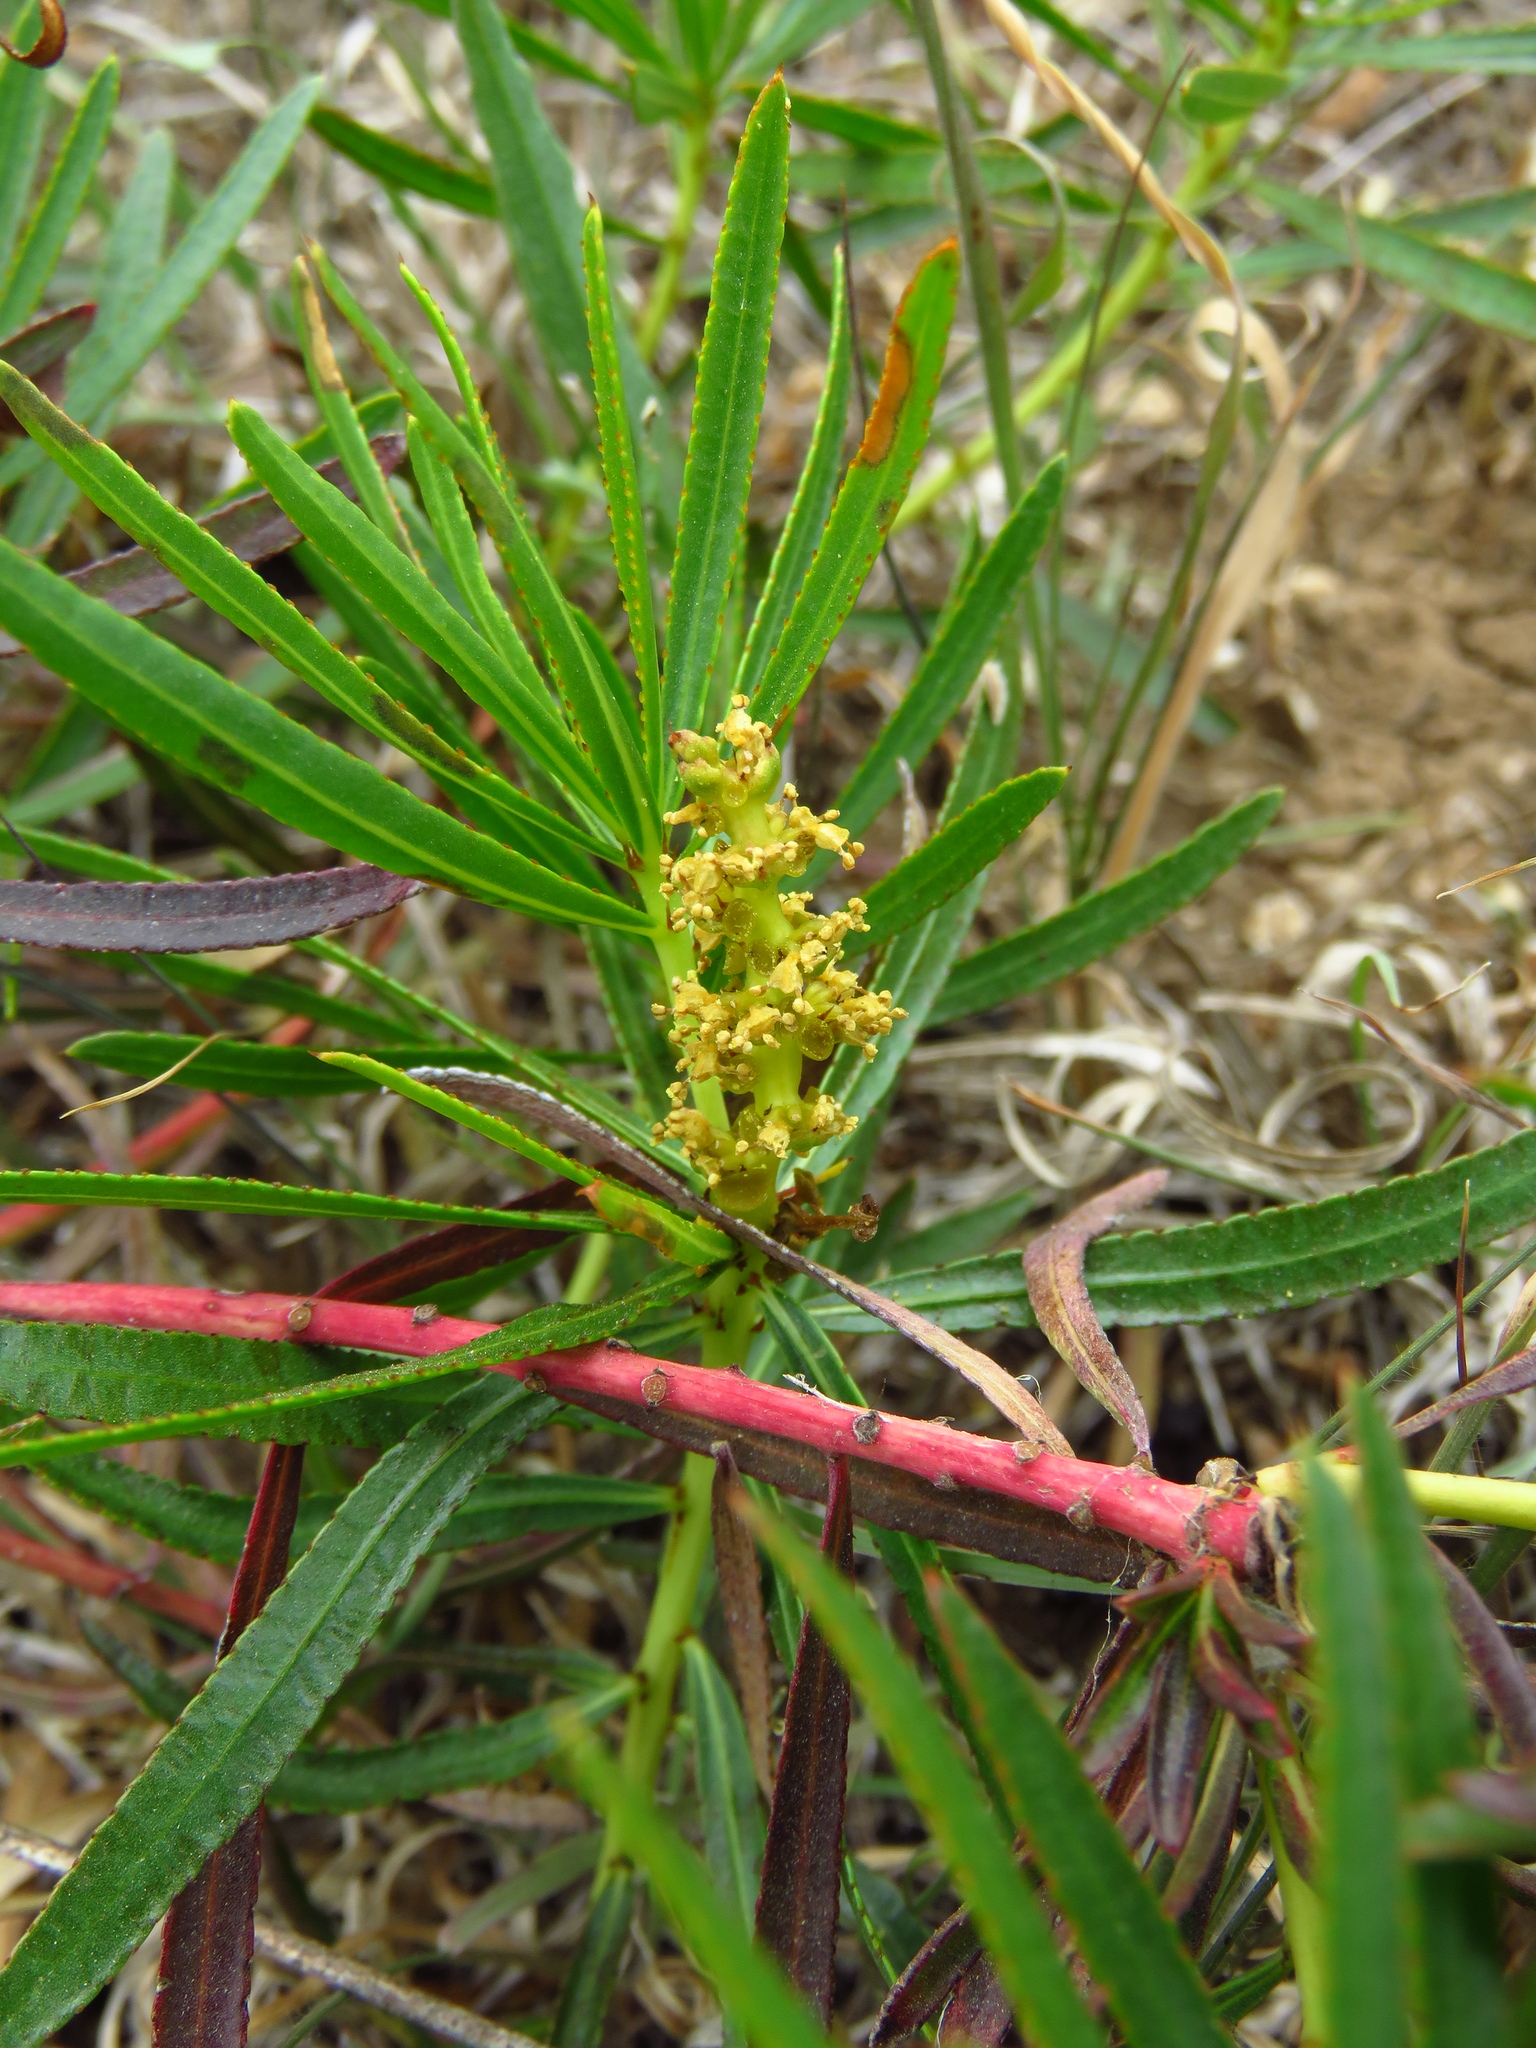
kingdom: Plantae
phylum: Tracheophyta
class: Magnoliopsida
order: Malpighiales
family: Euphorbiaceae
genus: Stillingia
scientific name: Stillingia texana
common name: Texas stillingia
